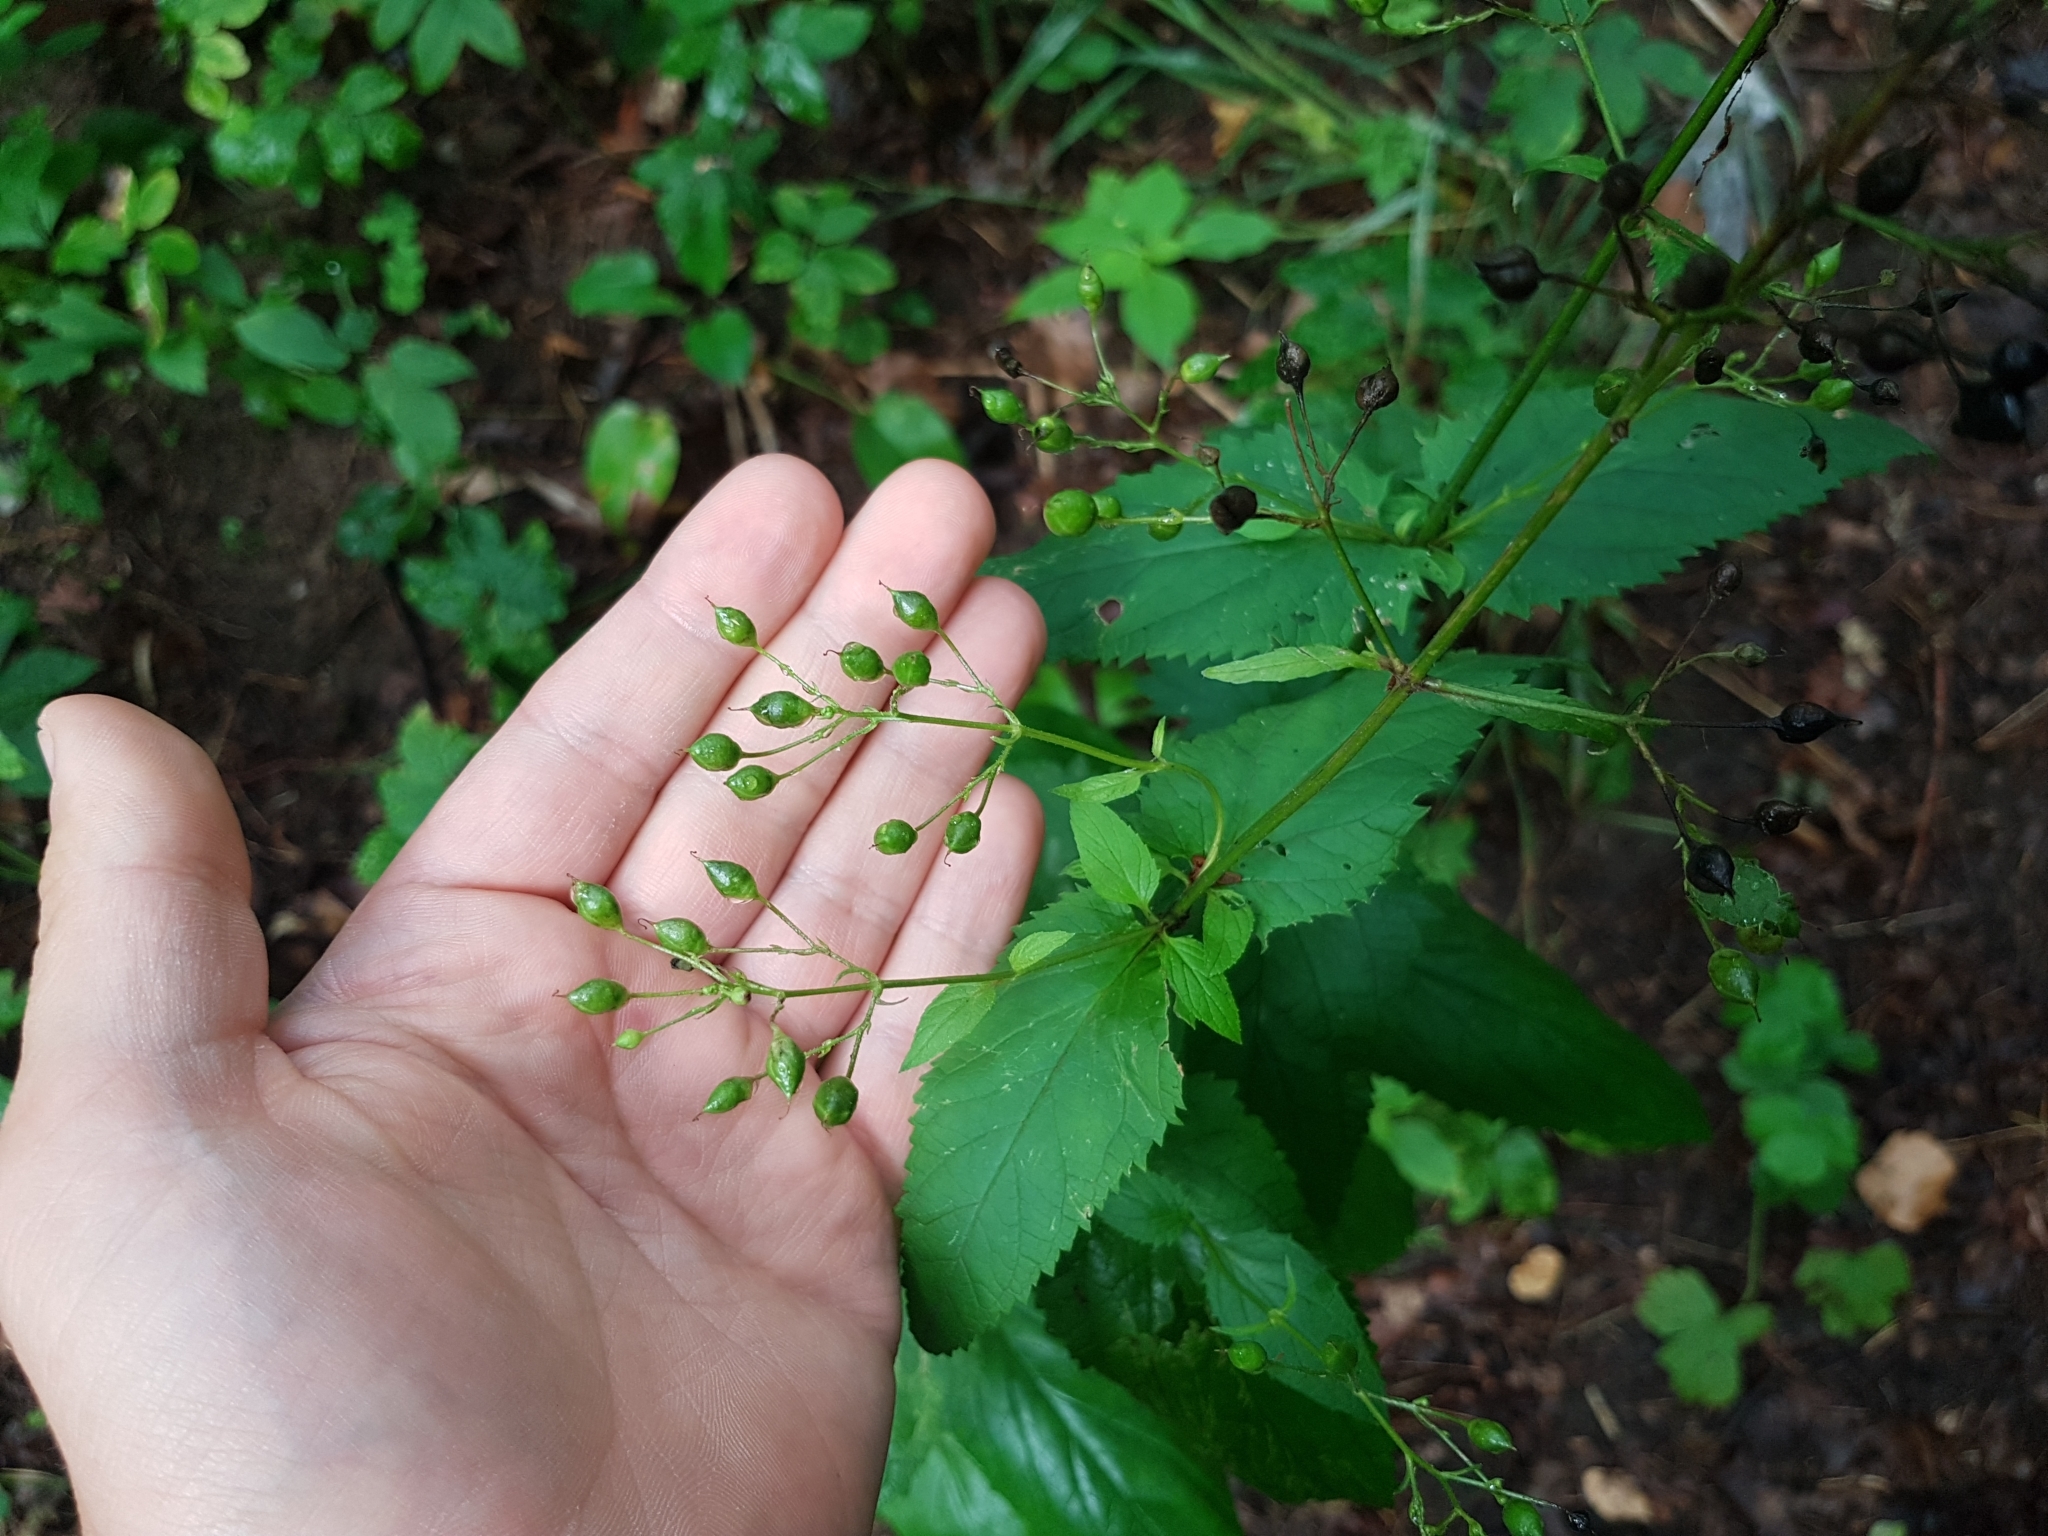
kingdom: Plantae
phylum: Tracheophyta
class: Magnoliopsida
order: Lamiales
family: Scrophulariaceae
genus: Scrophularia
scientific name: Scrophularia nodosa
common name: Common figwort
